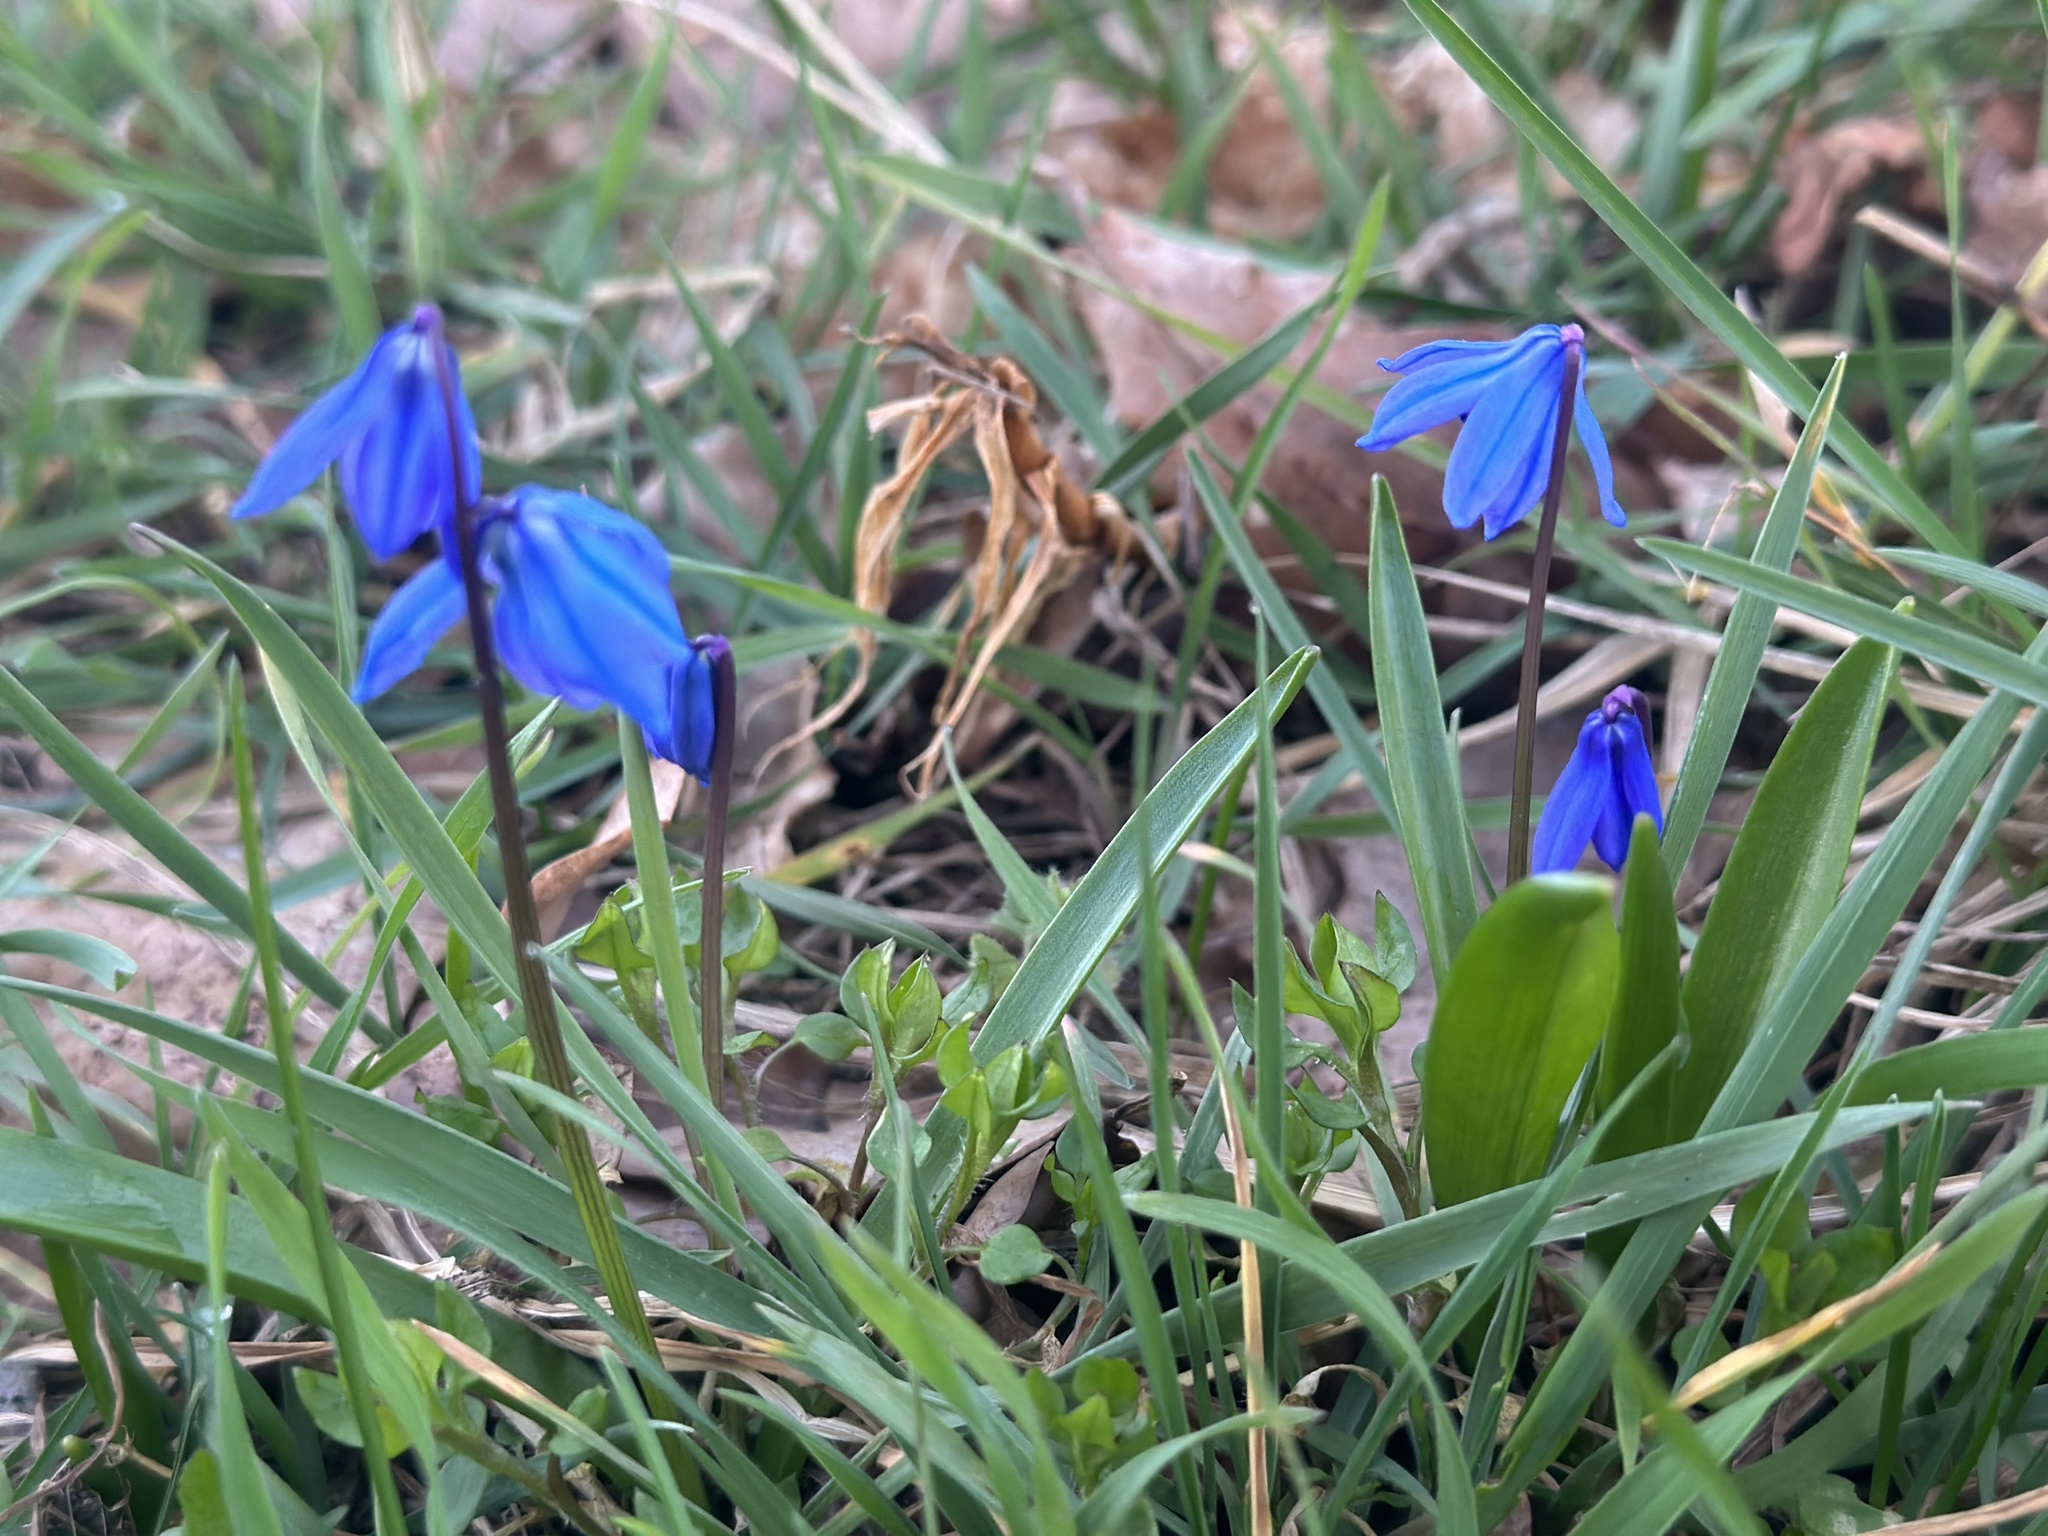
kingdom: Plantae
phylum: Tracheophyta
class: Liliopsida
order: Asparagales
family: Asparagaceae
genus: Scilla
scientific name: Scilla siberica
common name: Siberian squill
